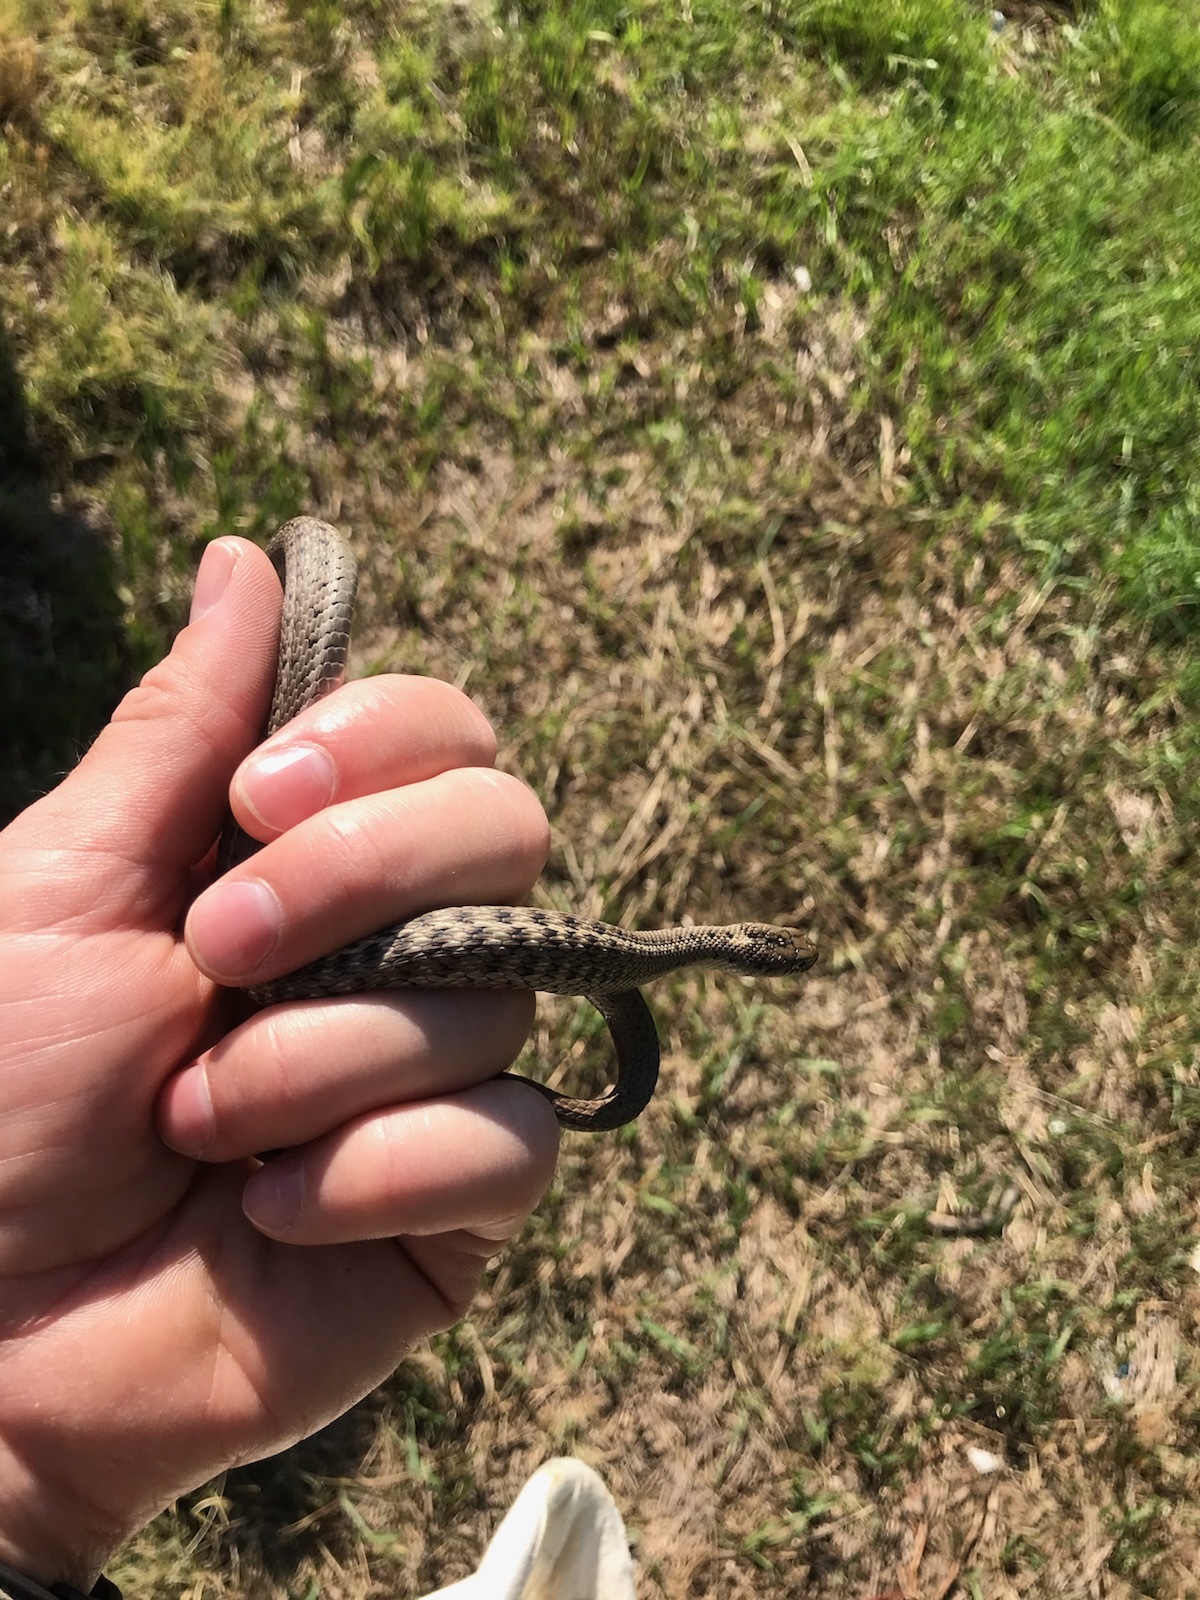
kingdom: Animalia
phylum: Chordata
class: Squamata
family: Colubridae
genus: Thamnophis
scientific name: Thamnophis elegans
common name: Western terrestrial garter snake
